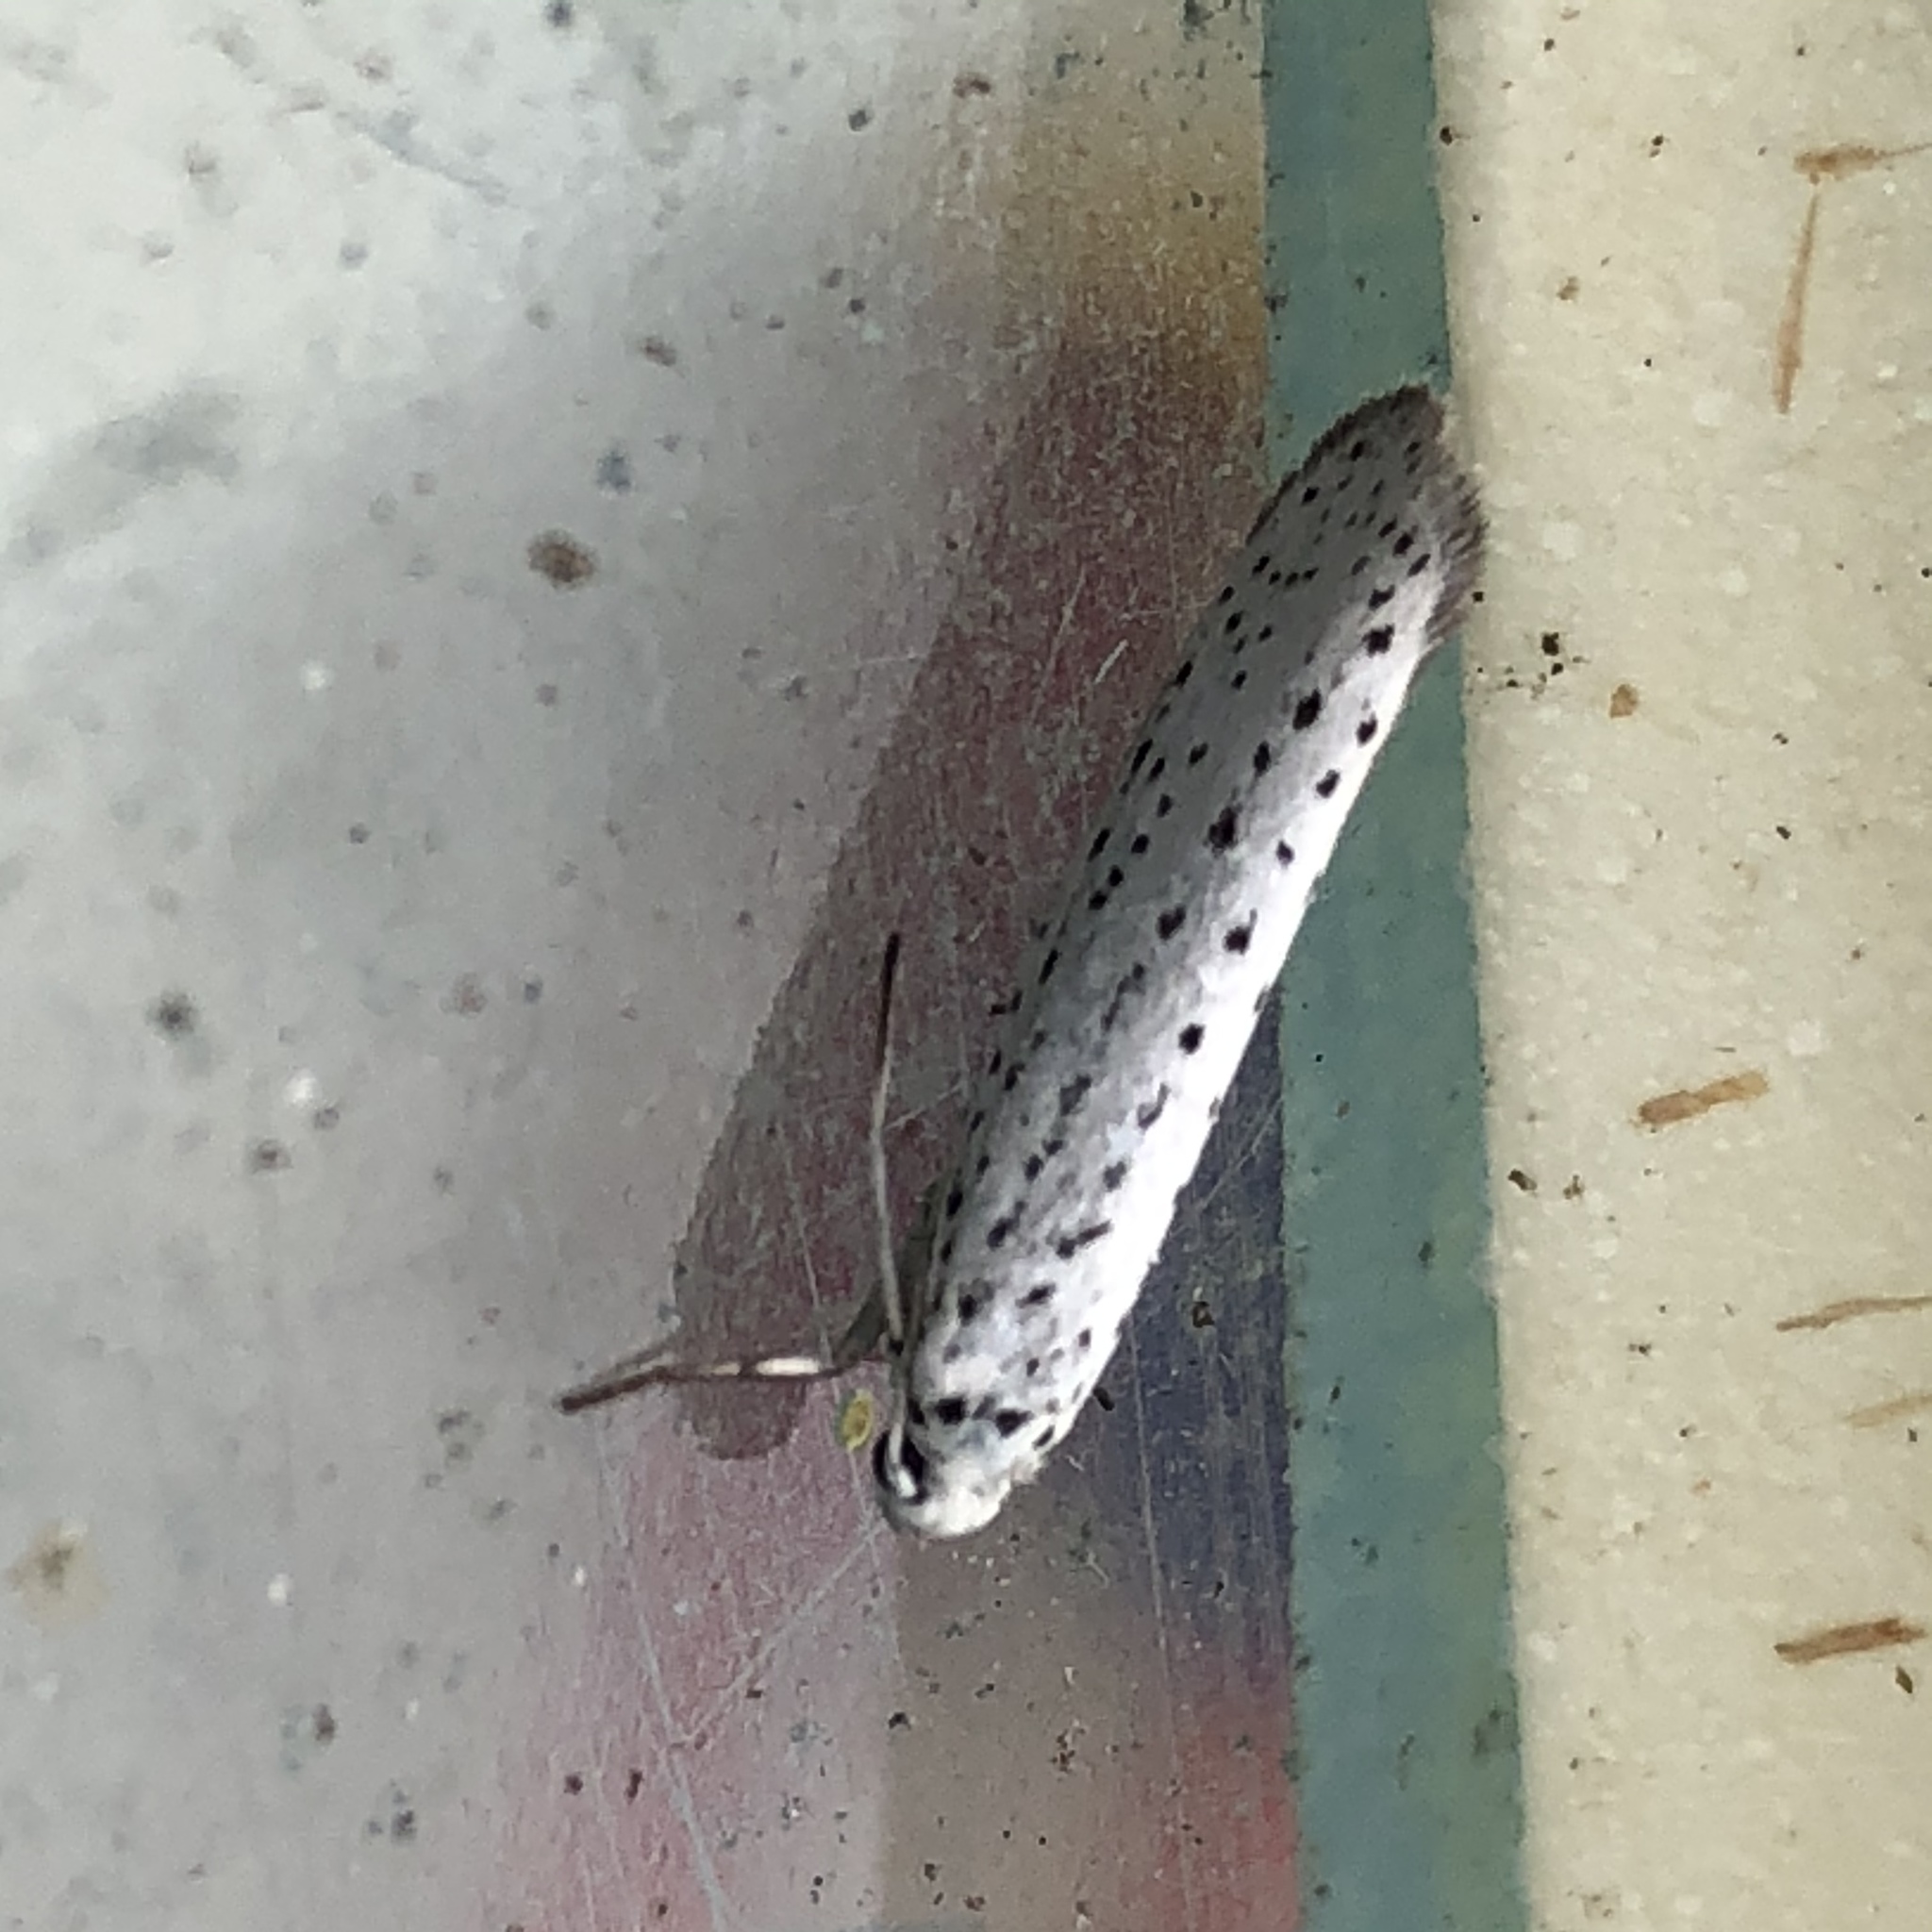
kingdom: Animalia
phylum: Arthropoda
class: Insecta
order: Lepidoptera
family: Yponomeutidae
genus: Yponomeuta
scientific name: Yponomeuta evonymella
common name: Bird-cherry ermine
